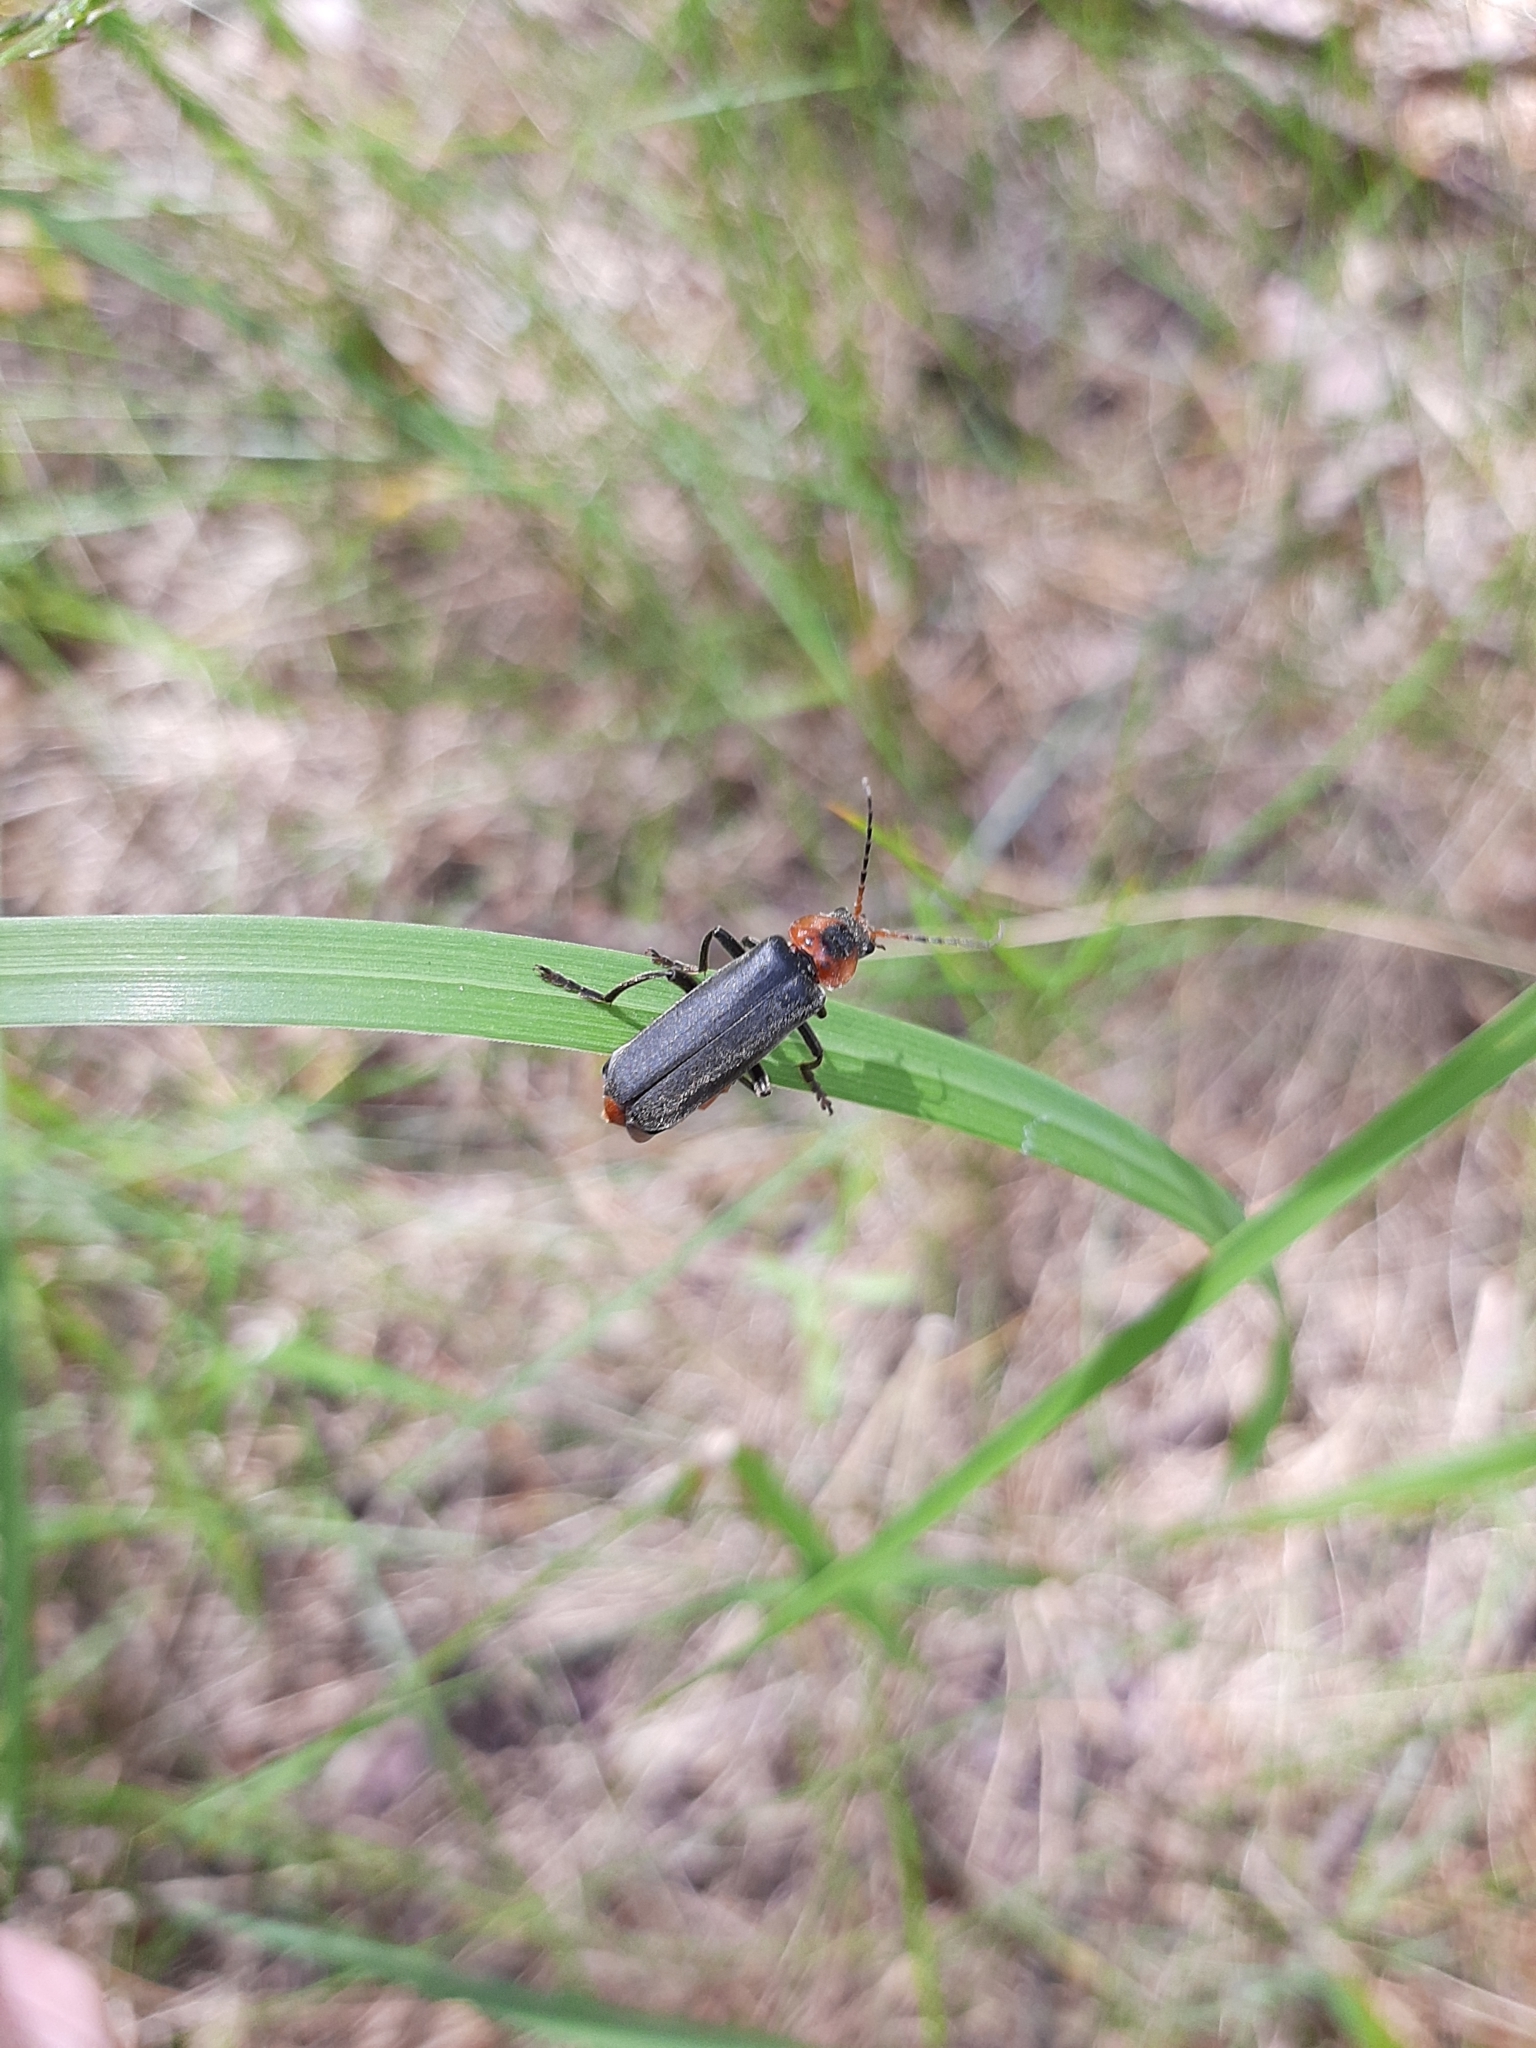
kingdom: Animalia
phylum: Arthropoda
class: Insecta
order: Coleoptera
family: Cantharidae
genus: Cantharis
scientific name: Cantharis fusca
